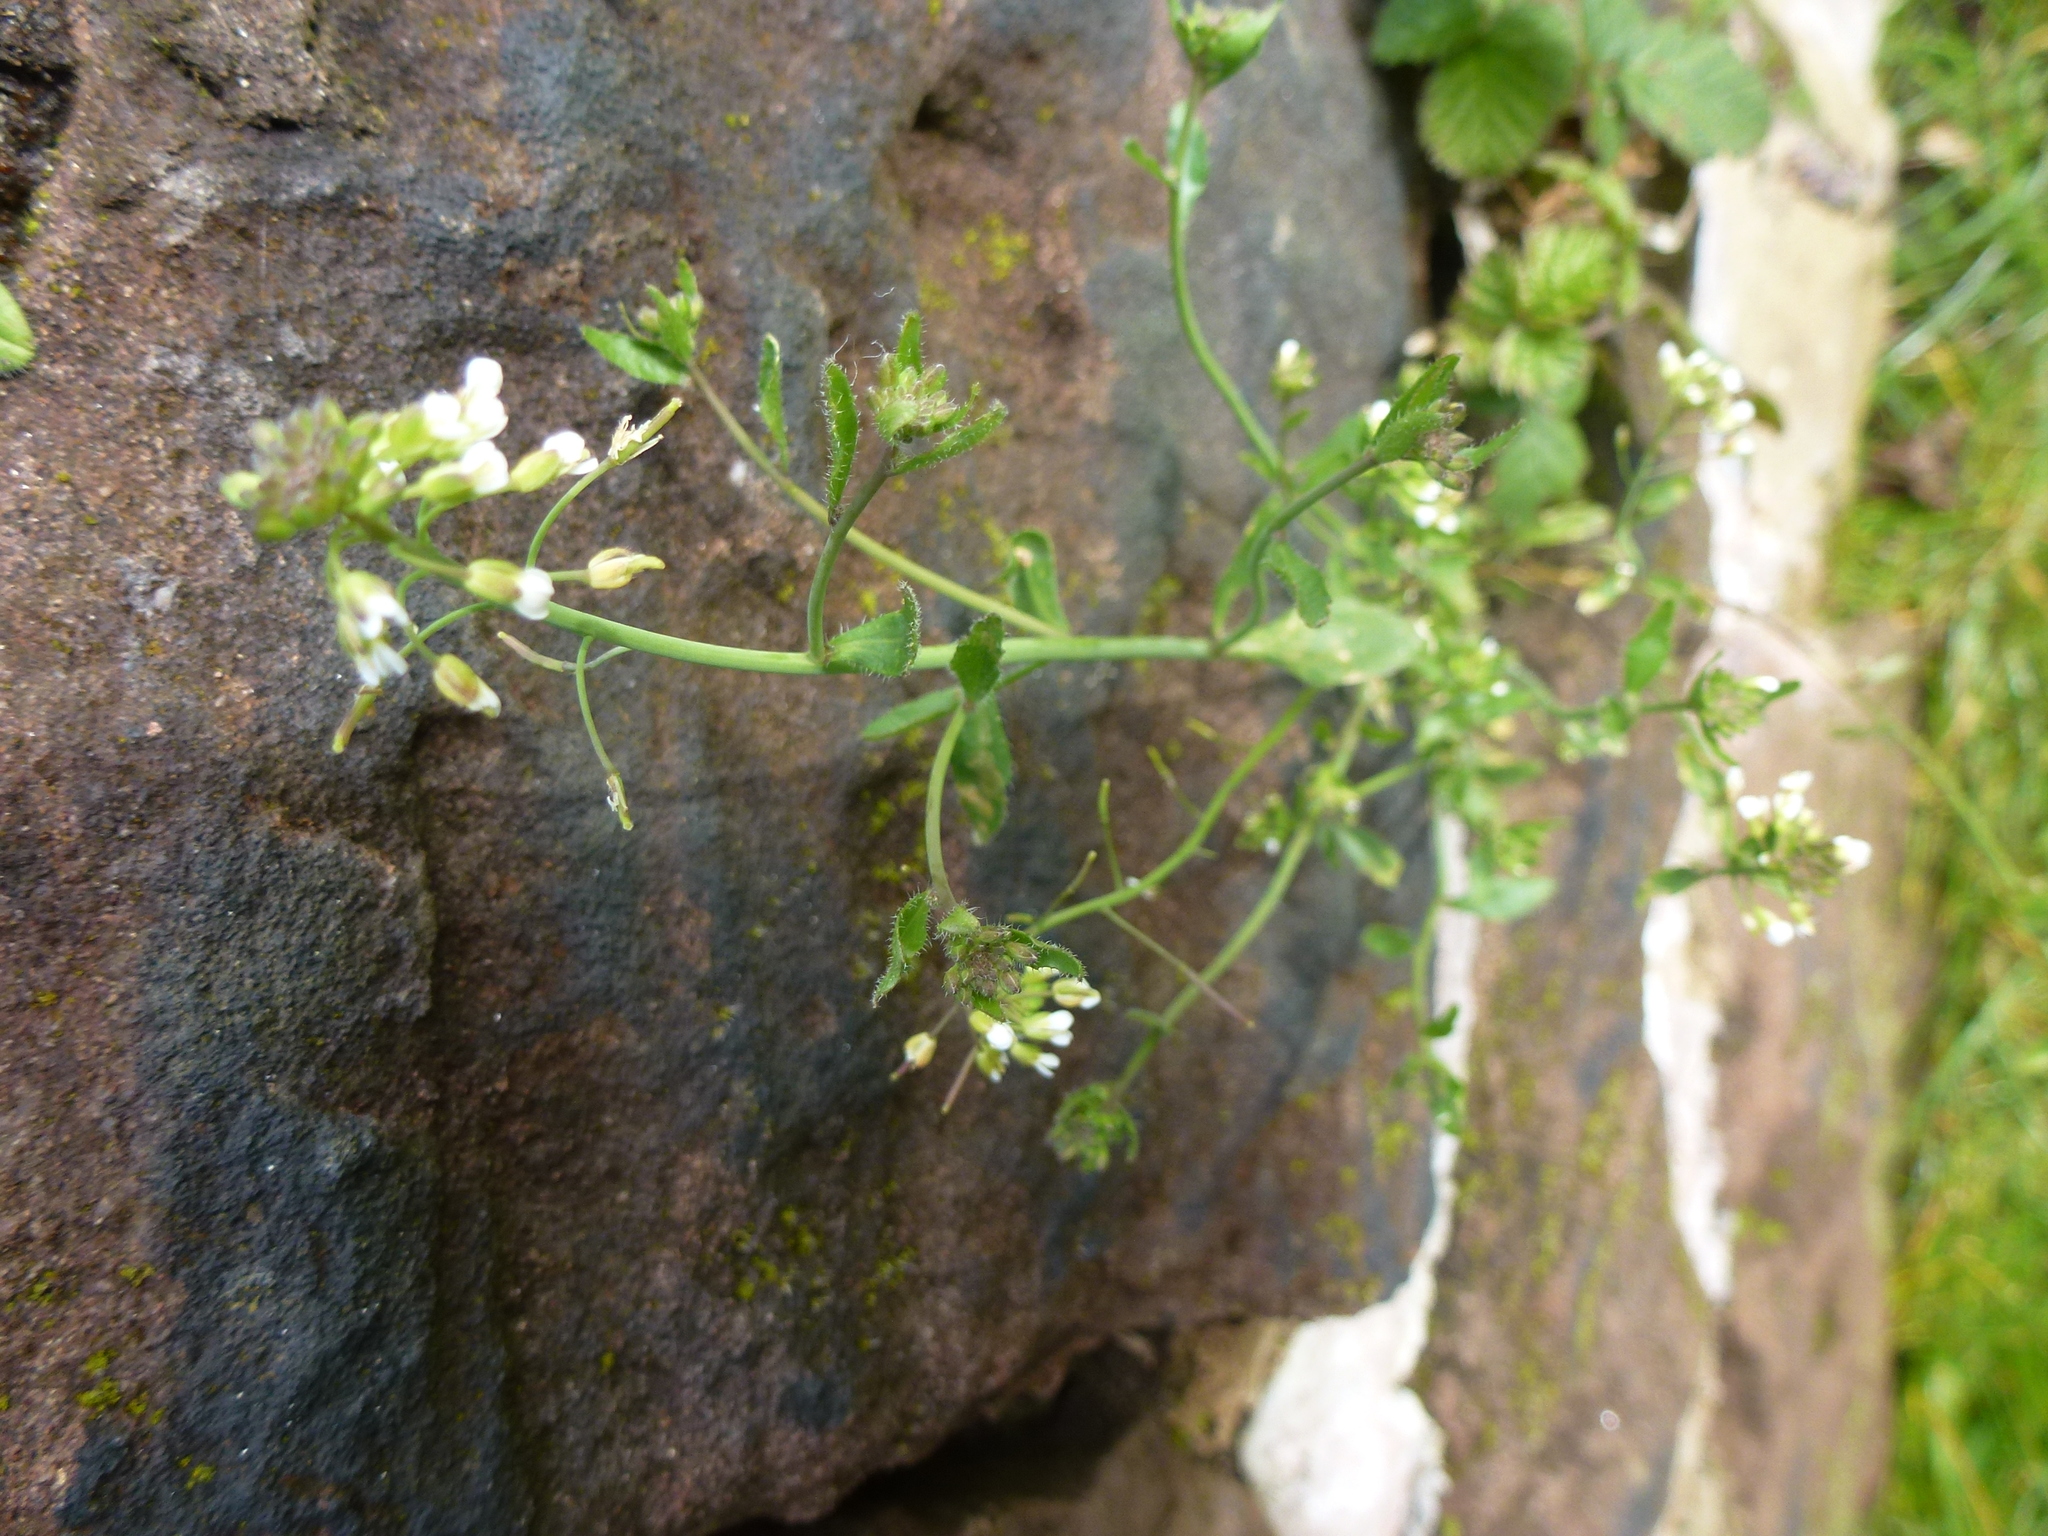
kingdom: Plantae
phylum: Tracheophyta
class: Magnoliopsida
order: Brassicales
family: Brassicaceae
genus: Arabidopsis
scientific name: Arabidopsis thaliana
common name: Thale cress
